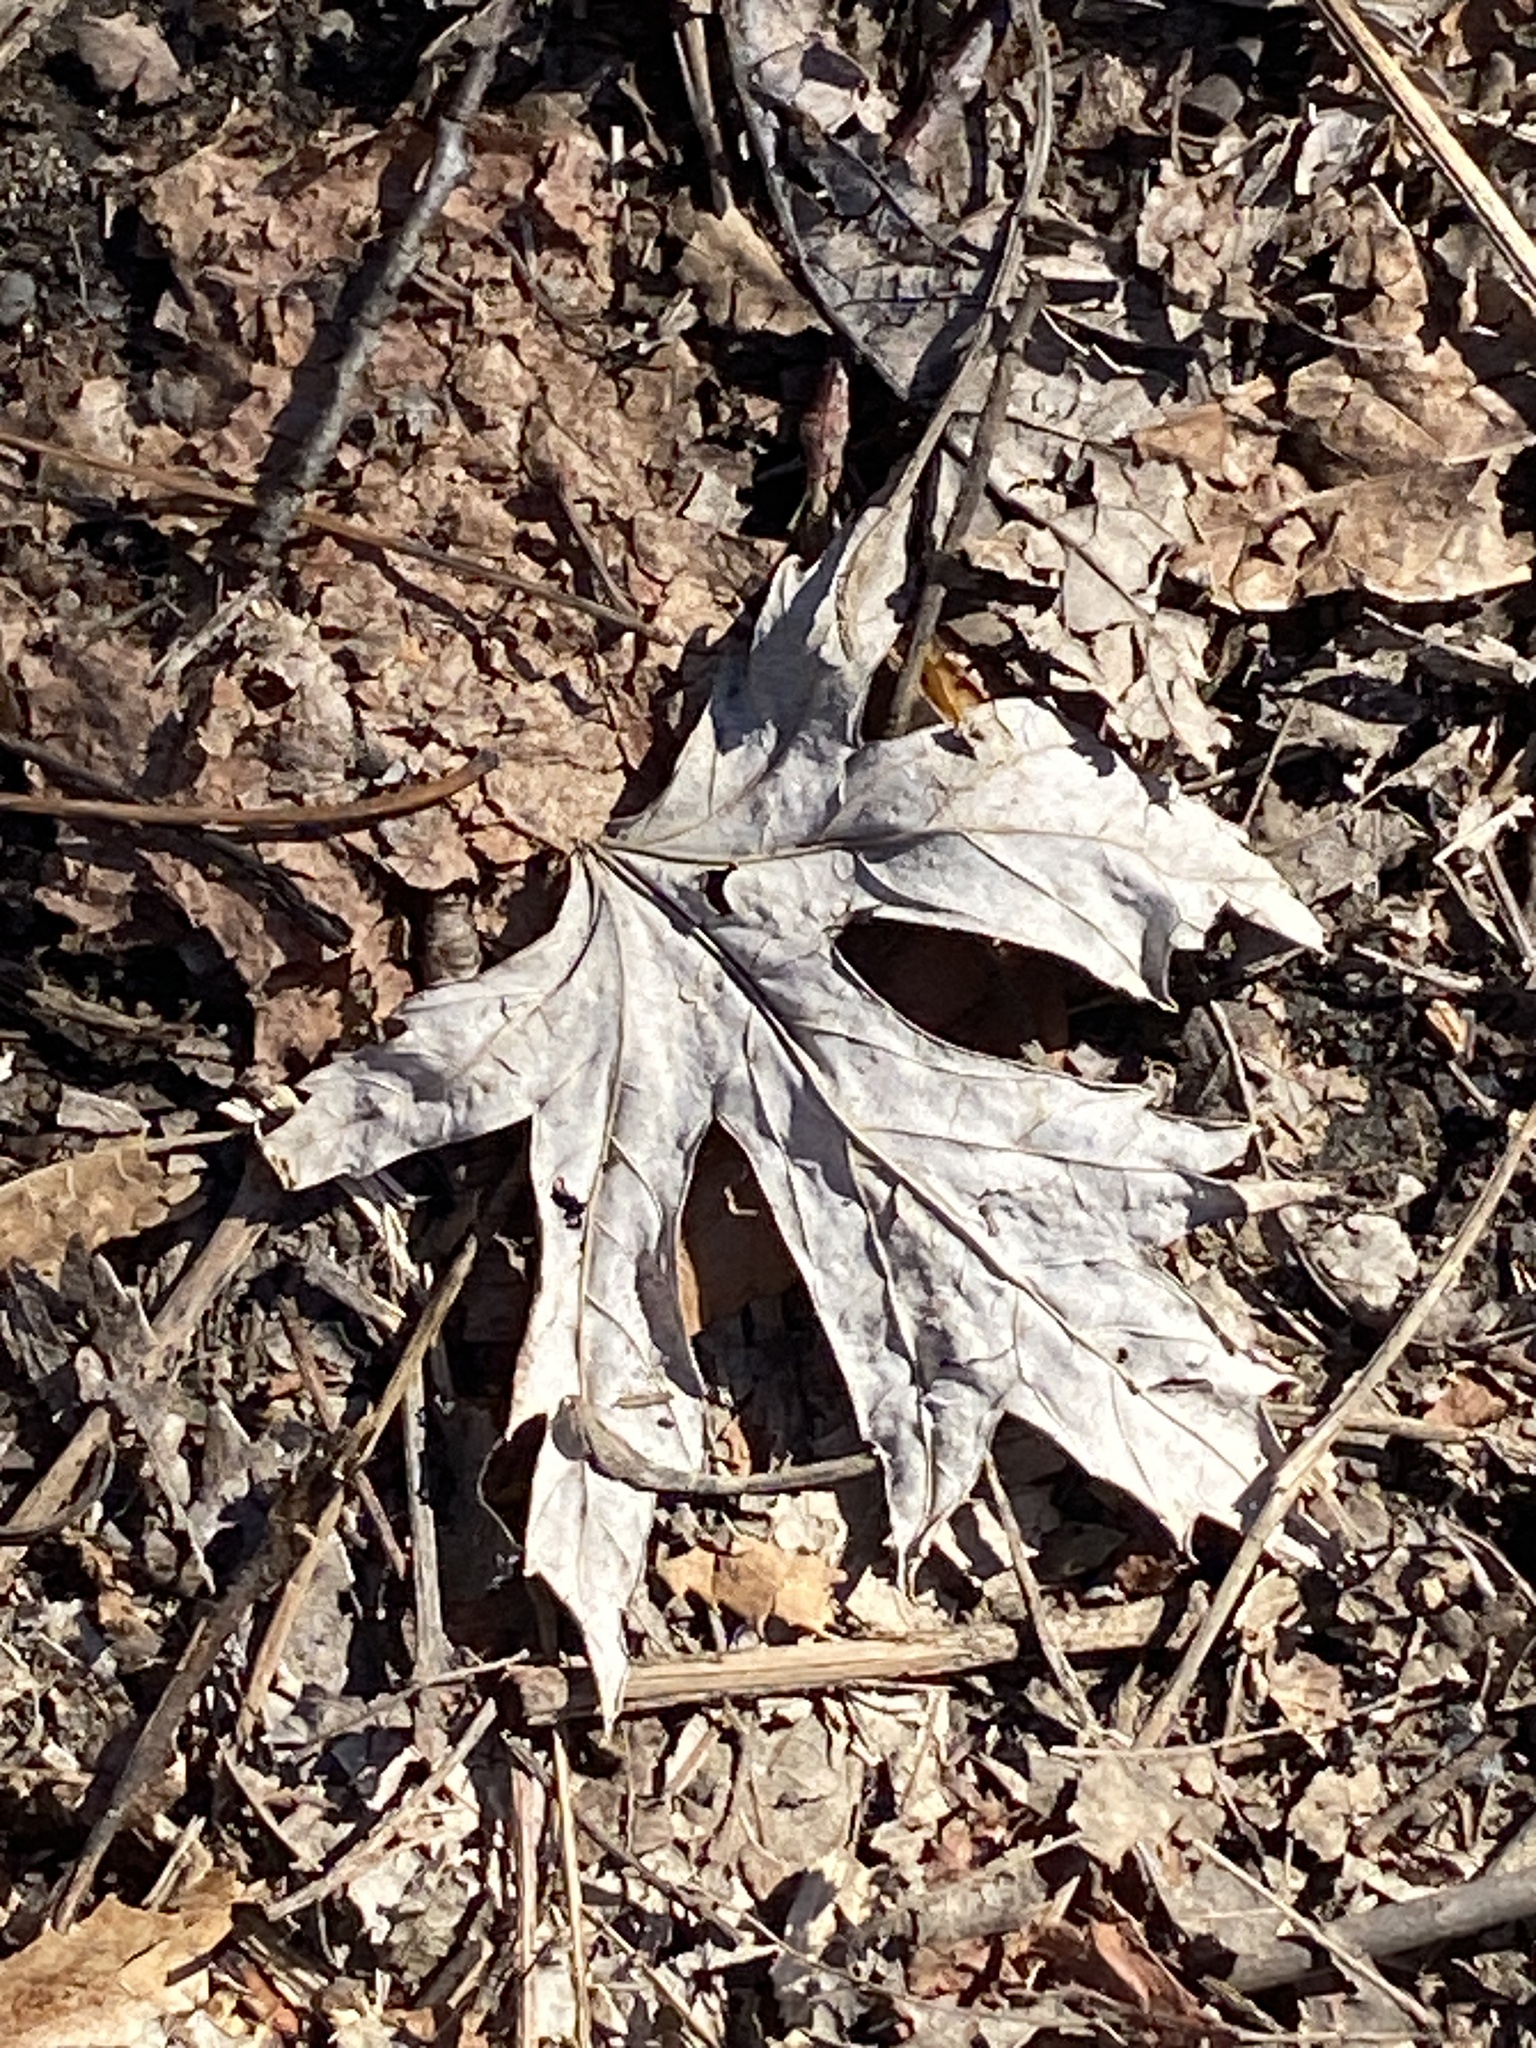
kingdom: Plantae
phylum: Tracheophyta
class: Magnoliopsida
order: Sapindales
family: Sapindaceae
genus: Acer
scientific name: Acer saccharinum
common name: Silver maple
